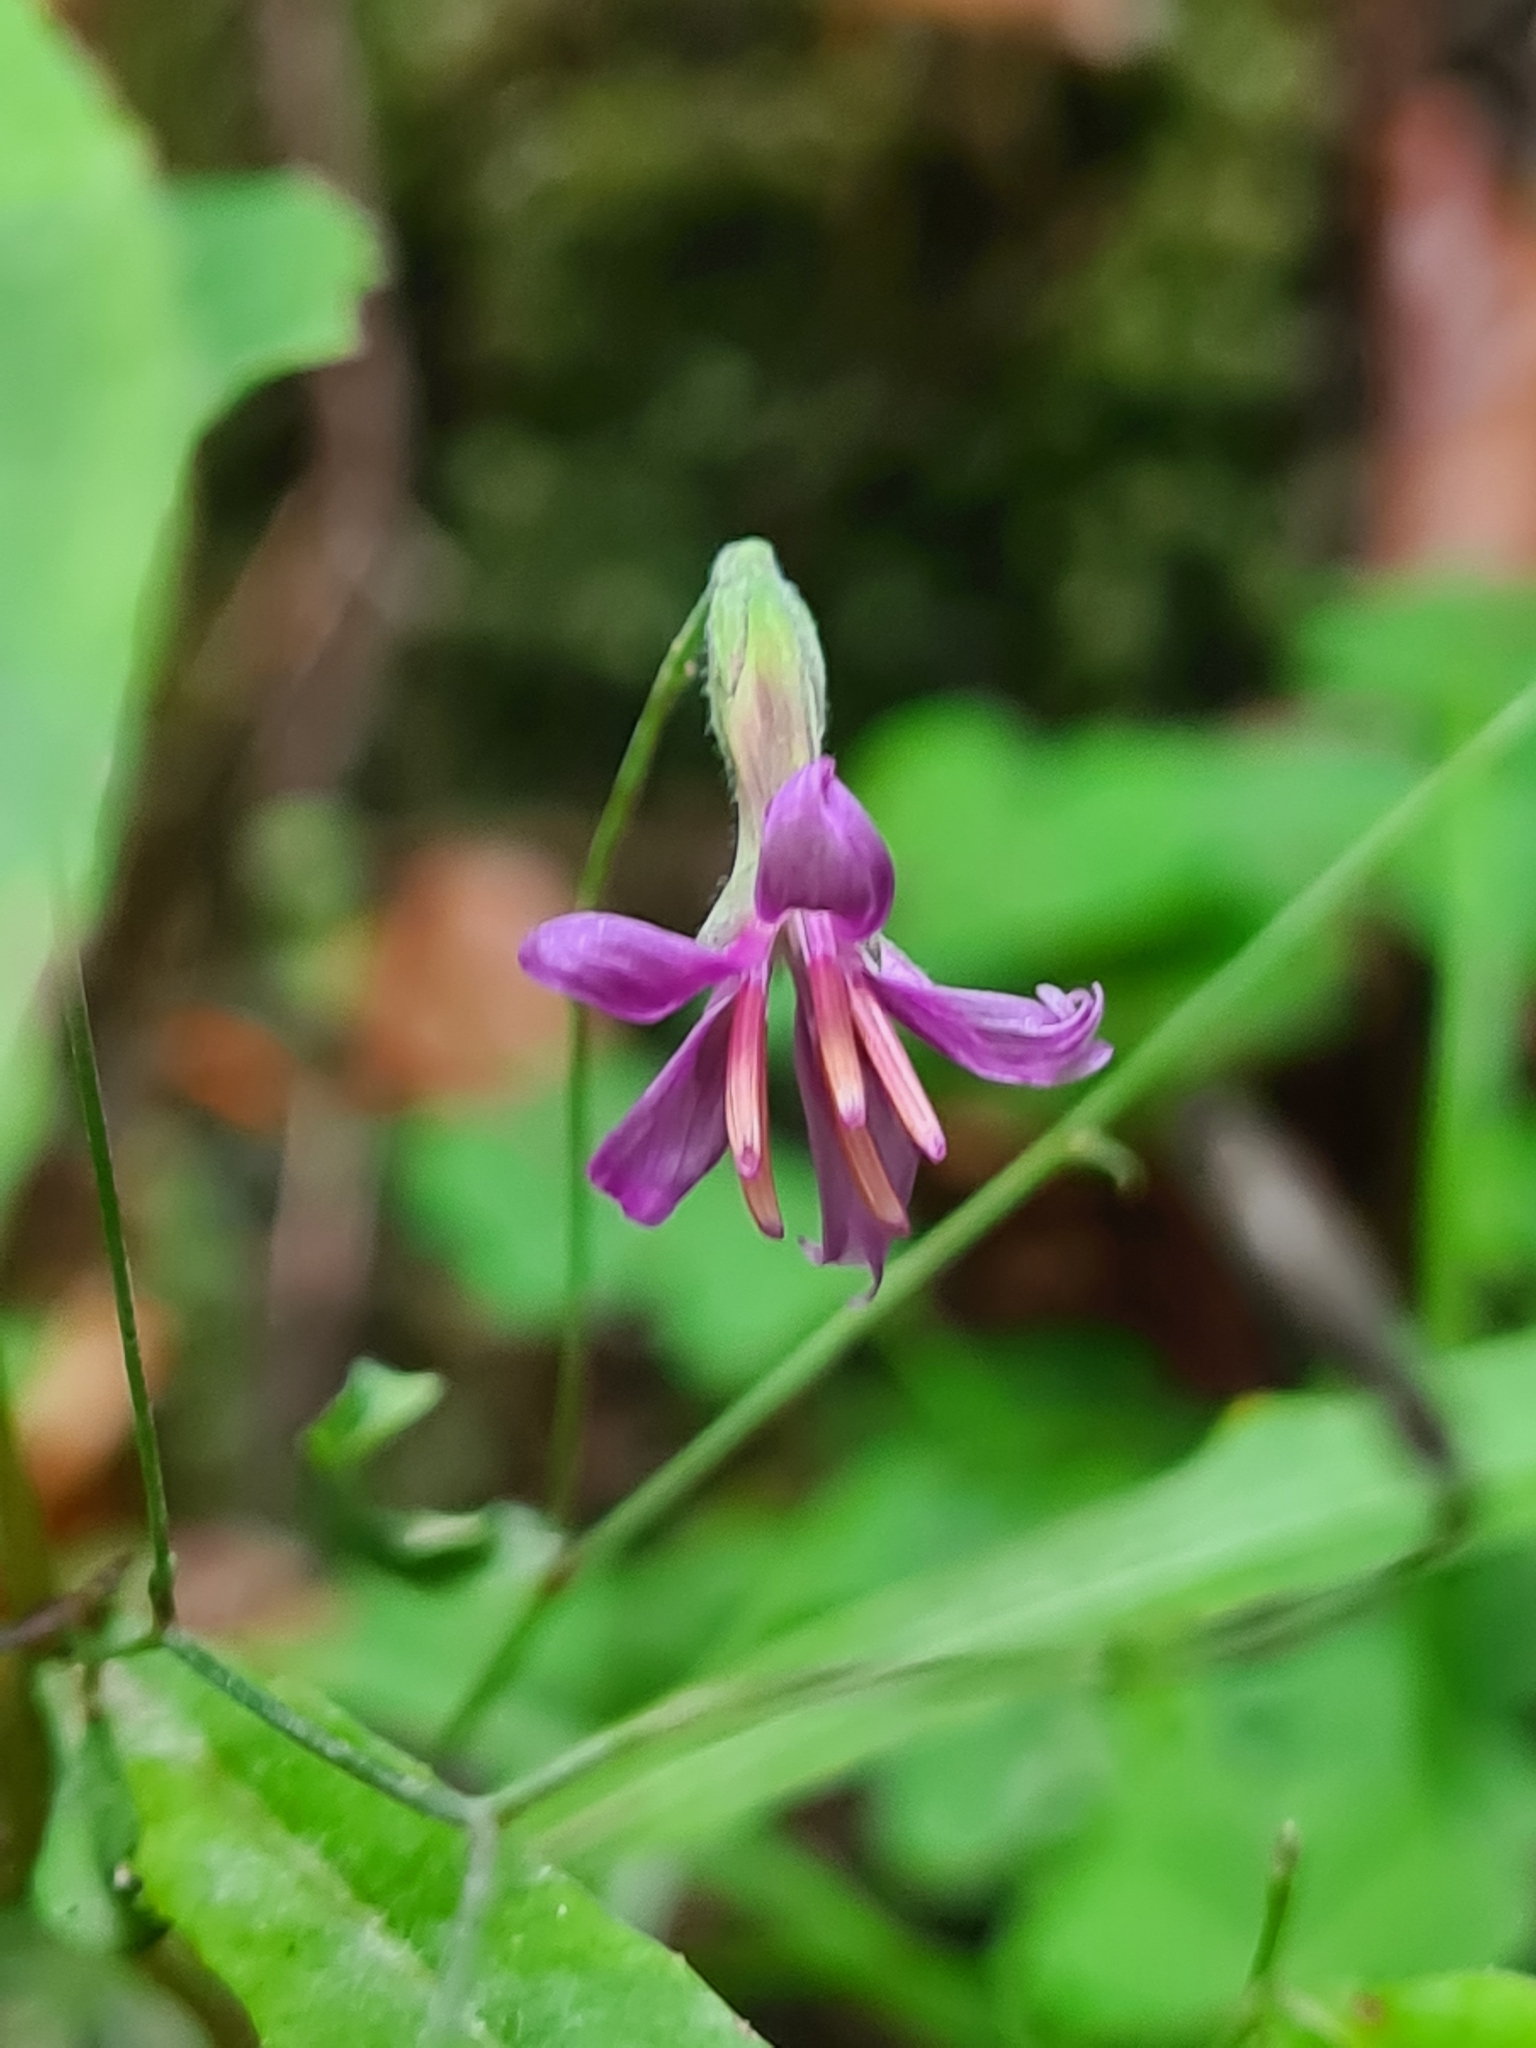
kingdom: Plantae
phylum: Tracheophyta
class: Magnoliopsida
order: Asterales
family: Asteraceae
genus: Prenanthes
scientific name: Prenanthes purpurea
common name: Purple lettuce
